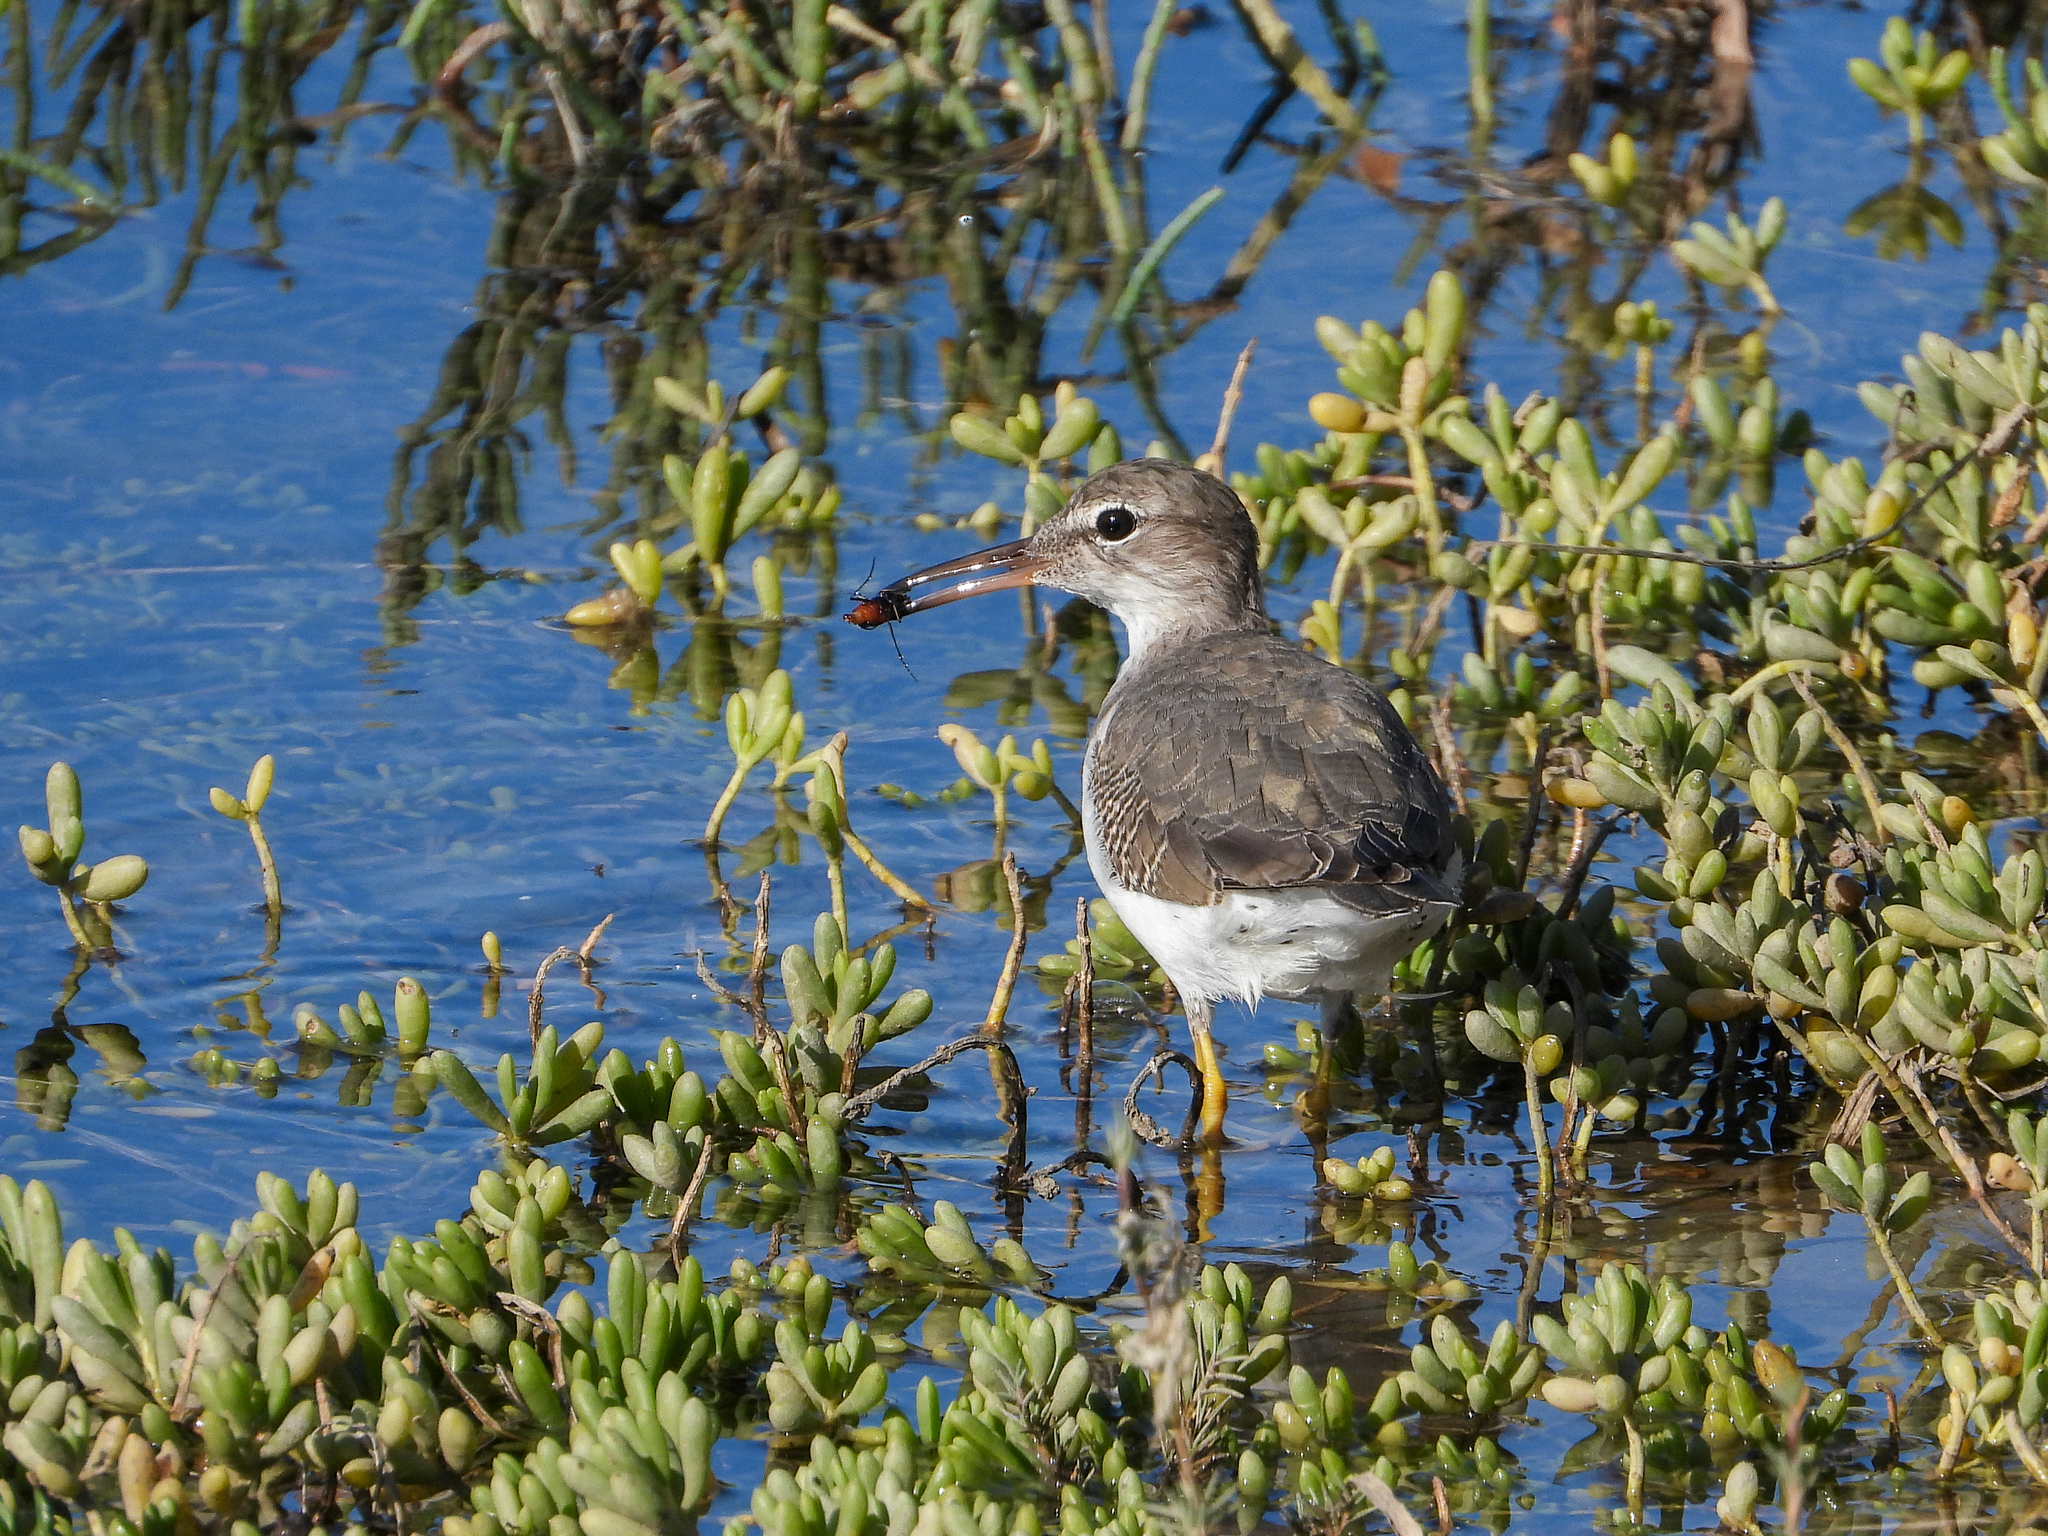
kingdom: Animalia
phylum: Chordata
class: Aves
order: Charadriiformes
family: Scolopacidae
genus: Actitis
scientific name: Actitis macularius
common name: Spotted sandpiper
